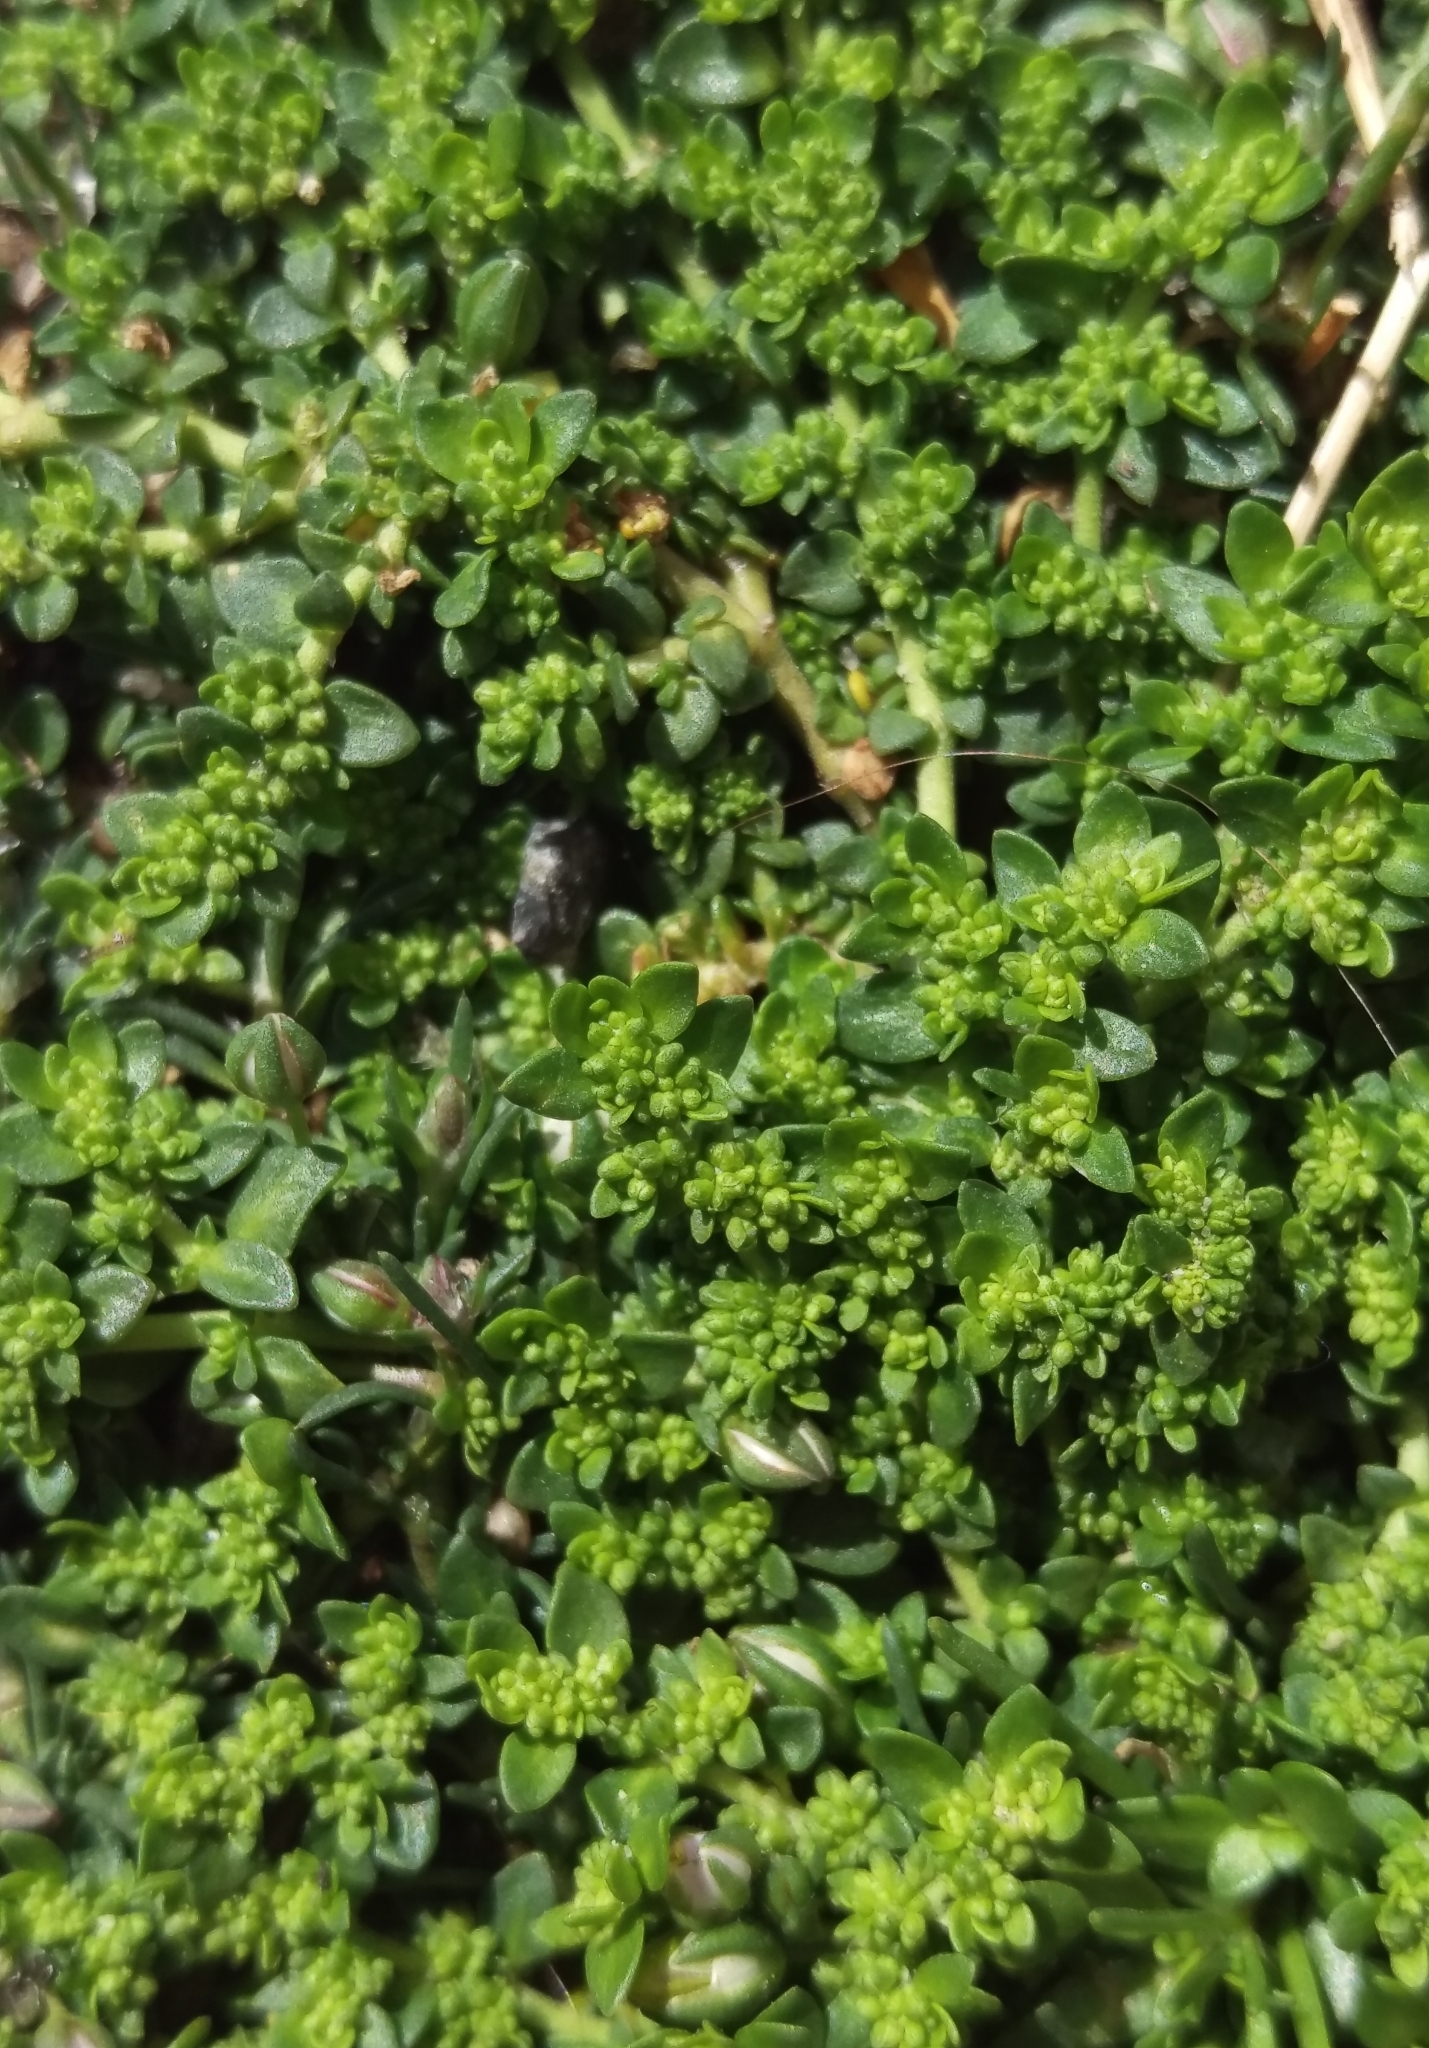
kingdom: Plantae
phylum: Tracheophyta
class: Magnoliopsida
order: Caryophyllales
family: Caryophyllaceae
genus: Herniaria
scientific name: Herniaria glabra
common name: Smooth rupturewort
